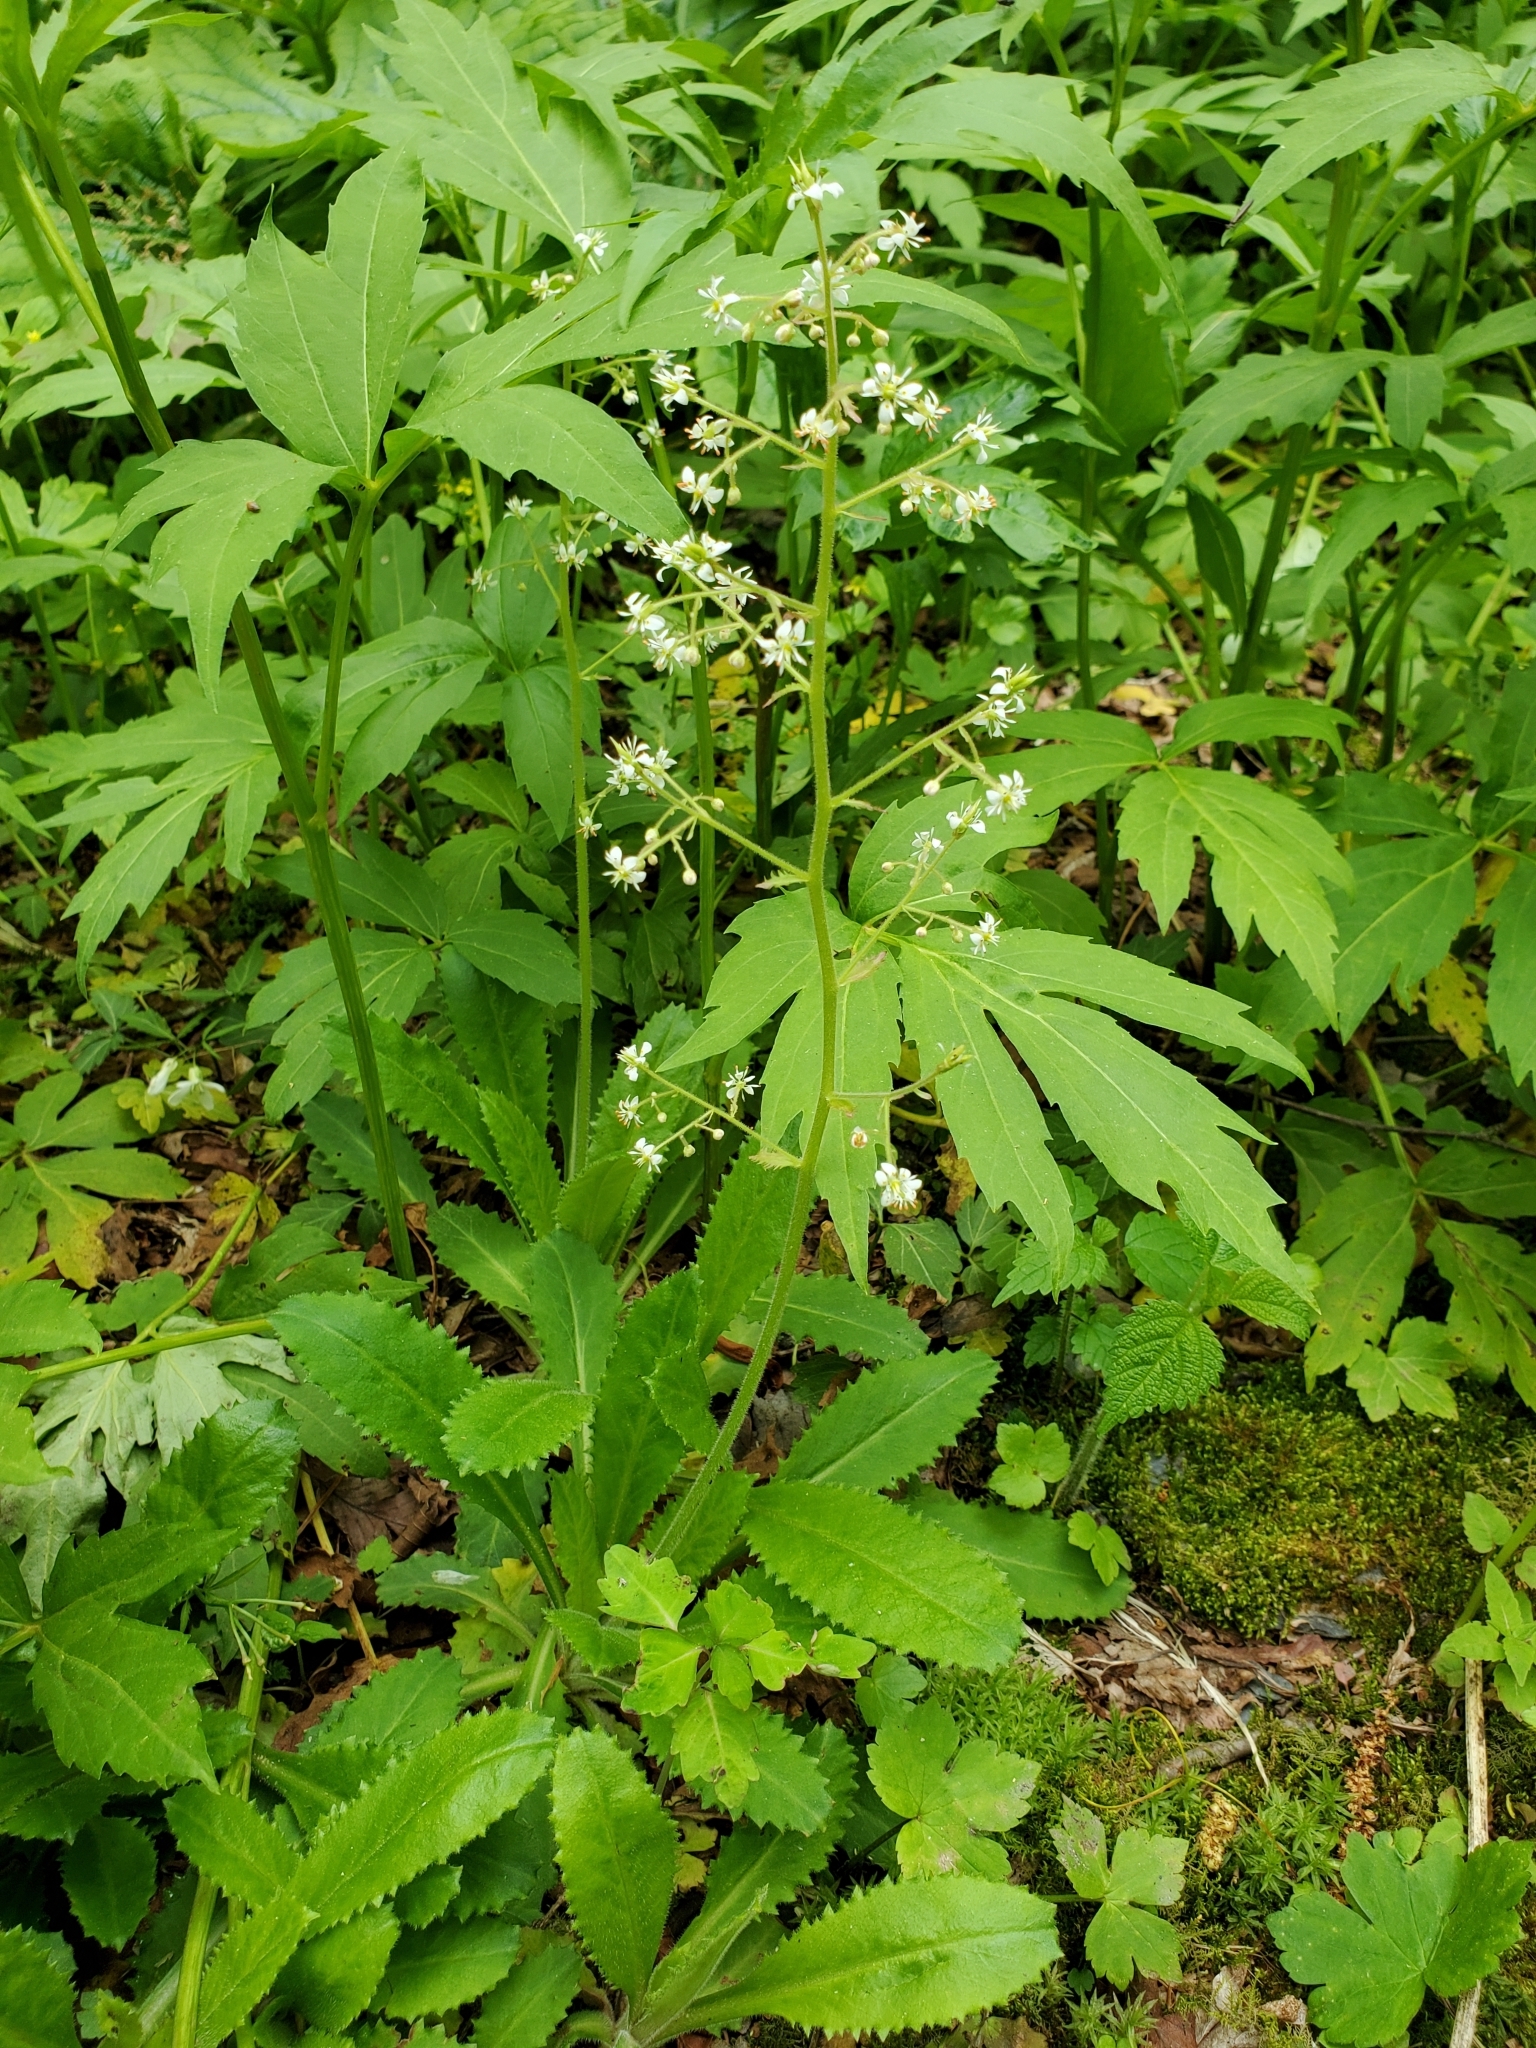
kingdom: Plantae
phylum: Tracheophyta
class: Magnoliopsida
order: Saxifragales
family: Saxifragaceae
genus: Micranthes
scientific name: Micranthes micranthidifolia
